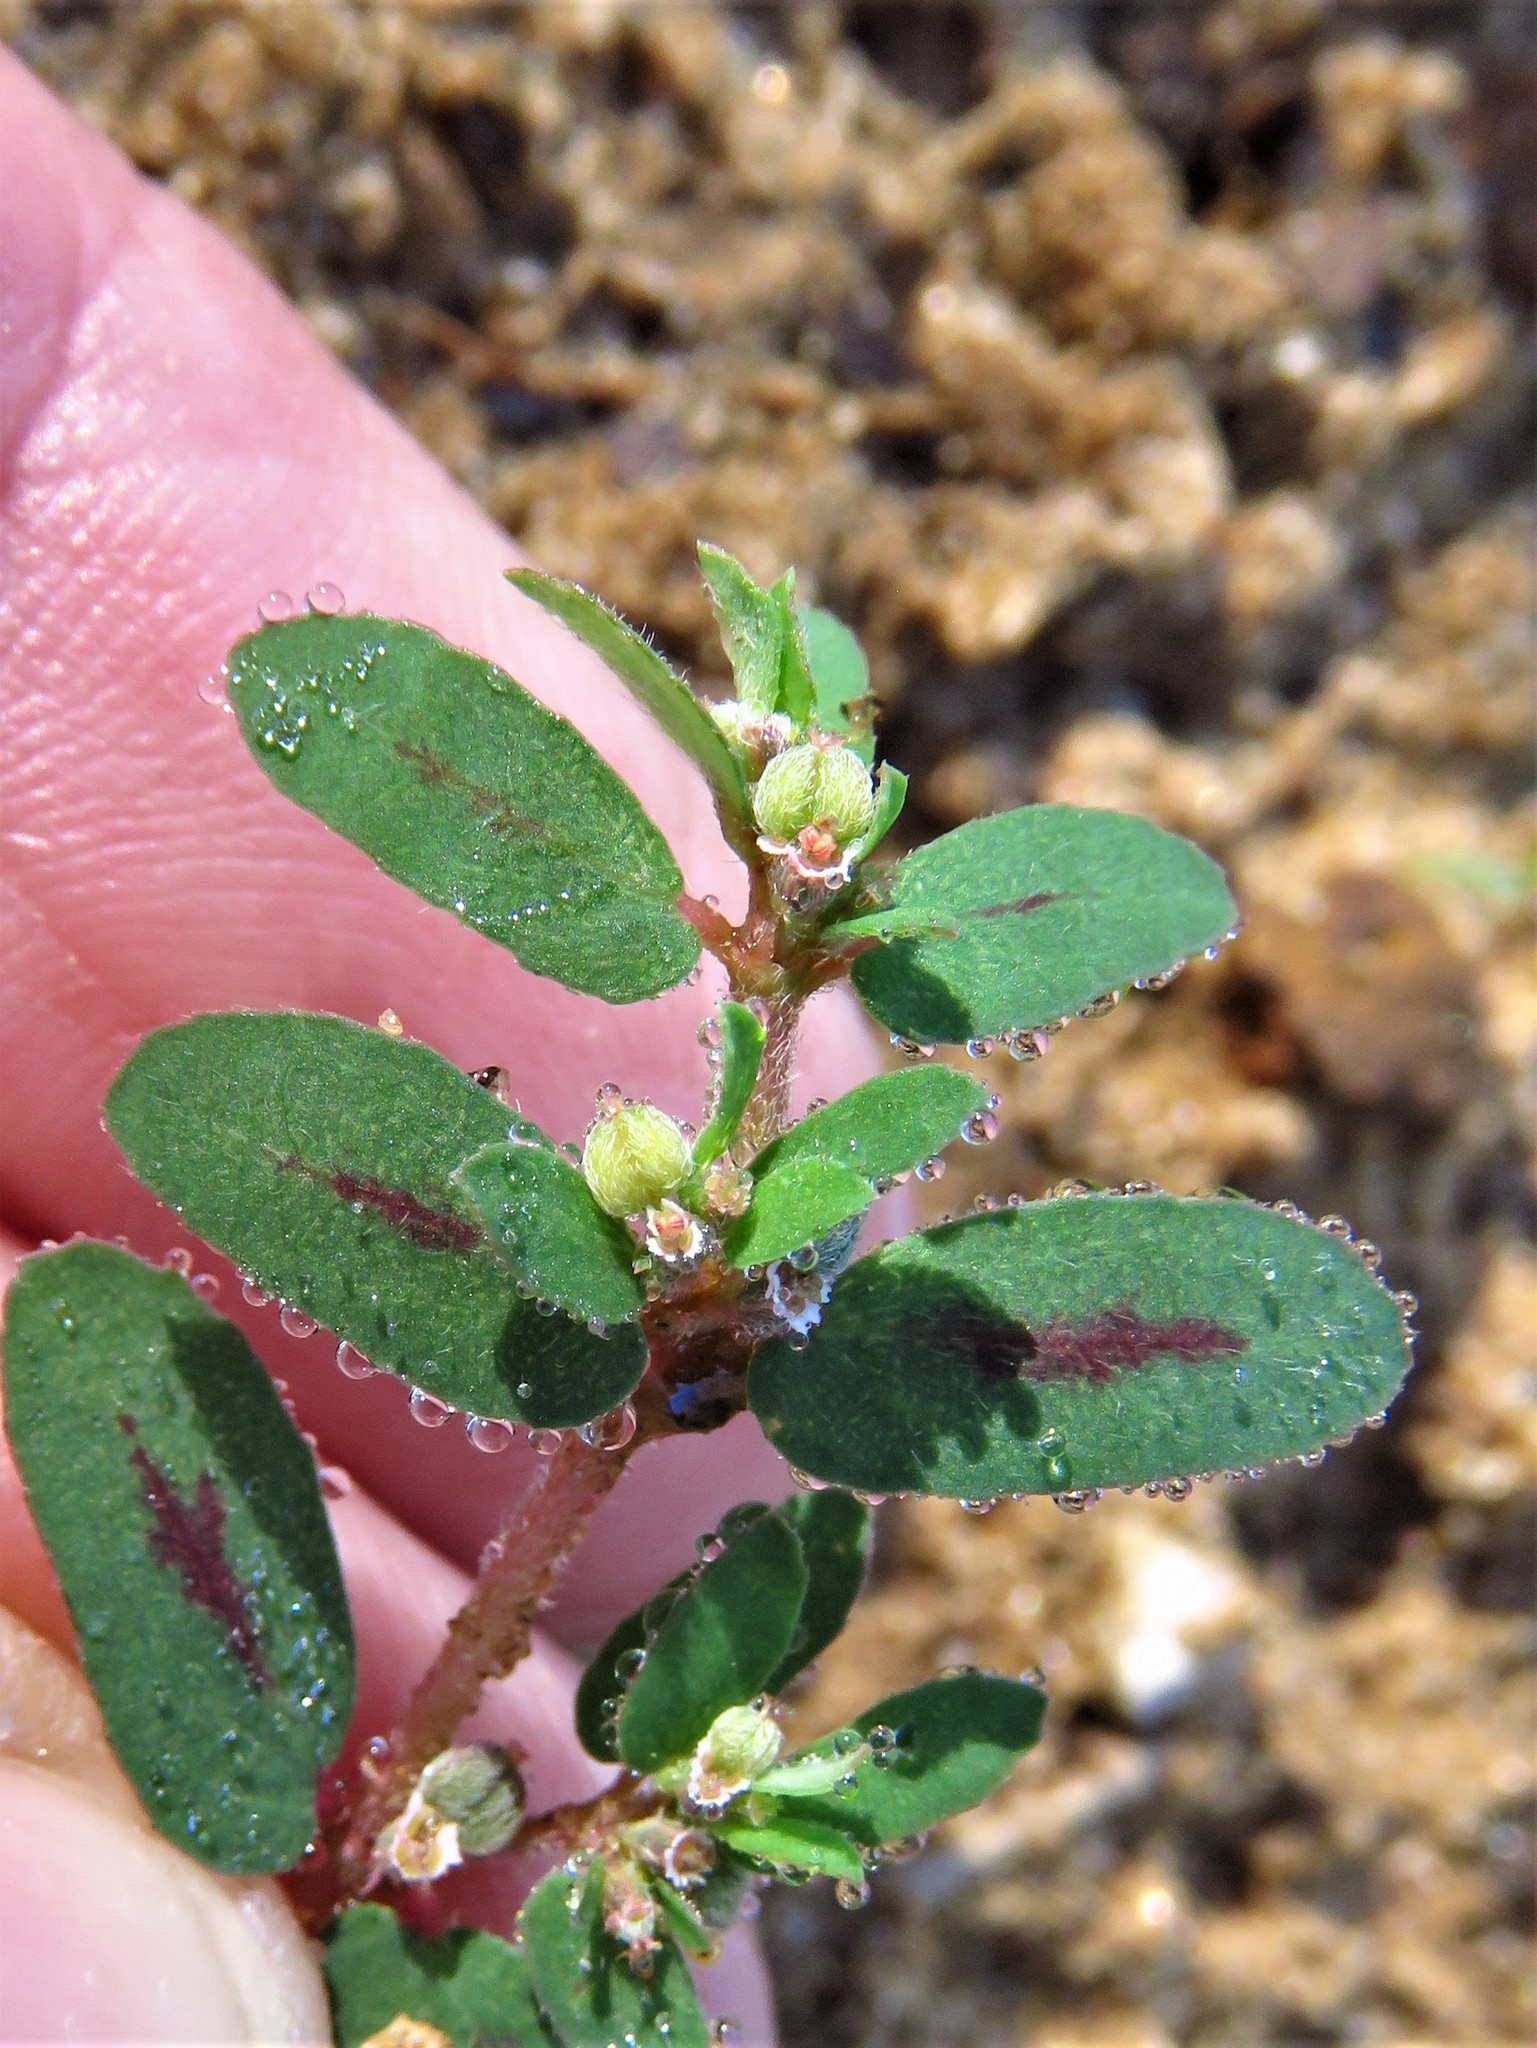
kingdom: Plantae
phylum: Tracheophyta
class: Magnoliopsida
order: Malpighiales
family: Euphorbiaceae
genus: Euphorbia
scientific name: Euphorbia maculata
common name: Spotted spurge
